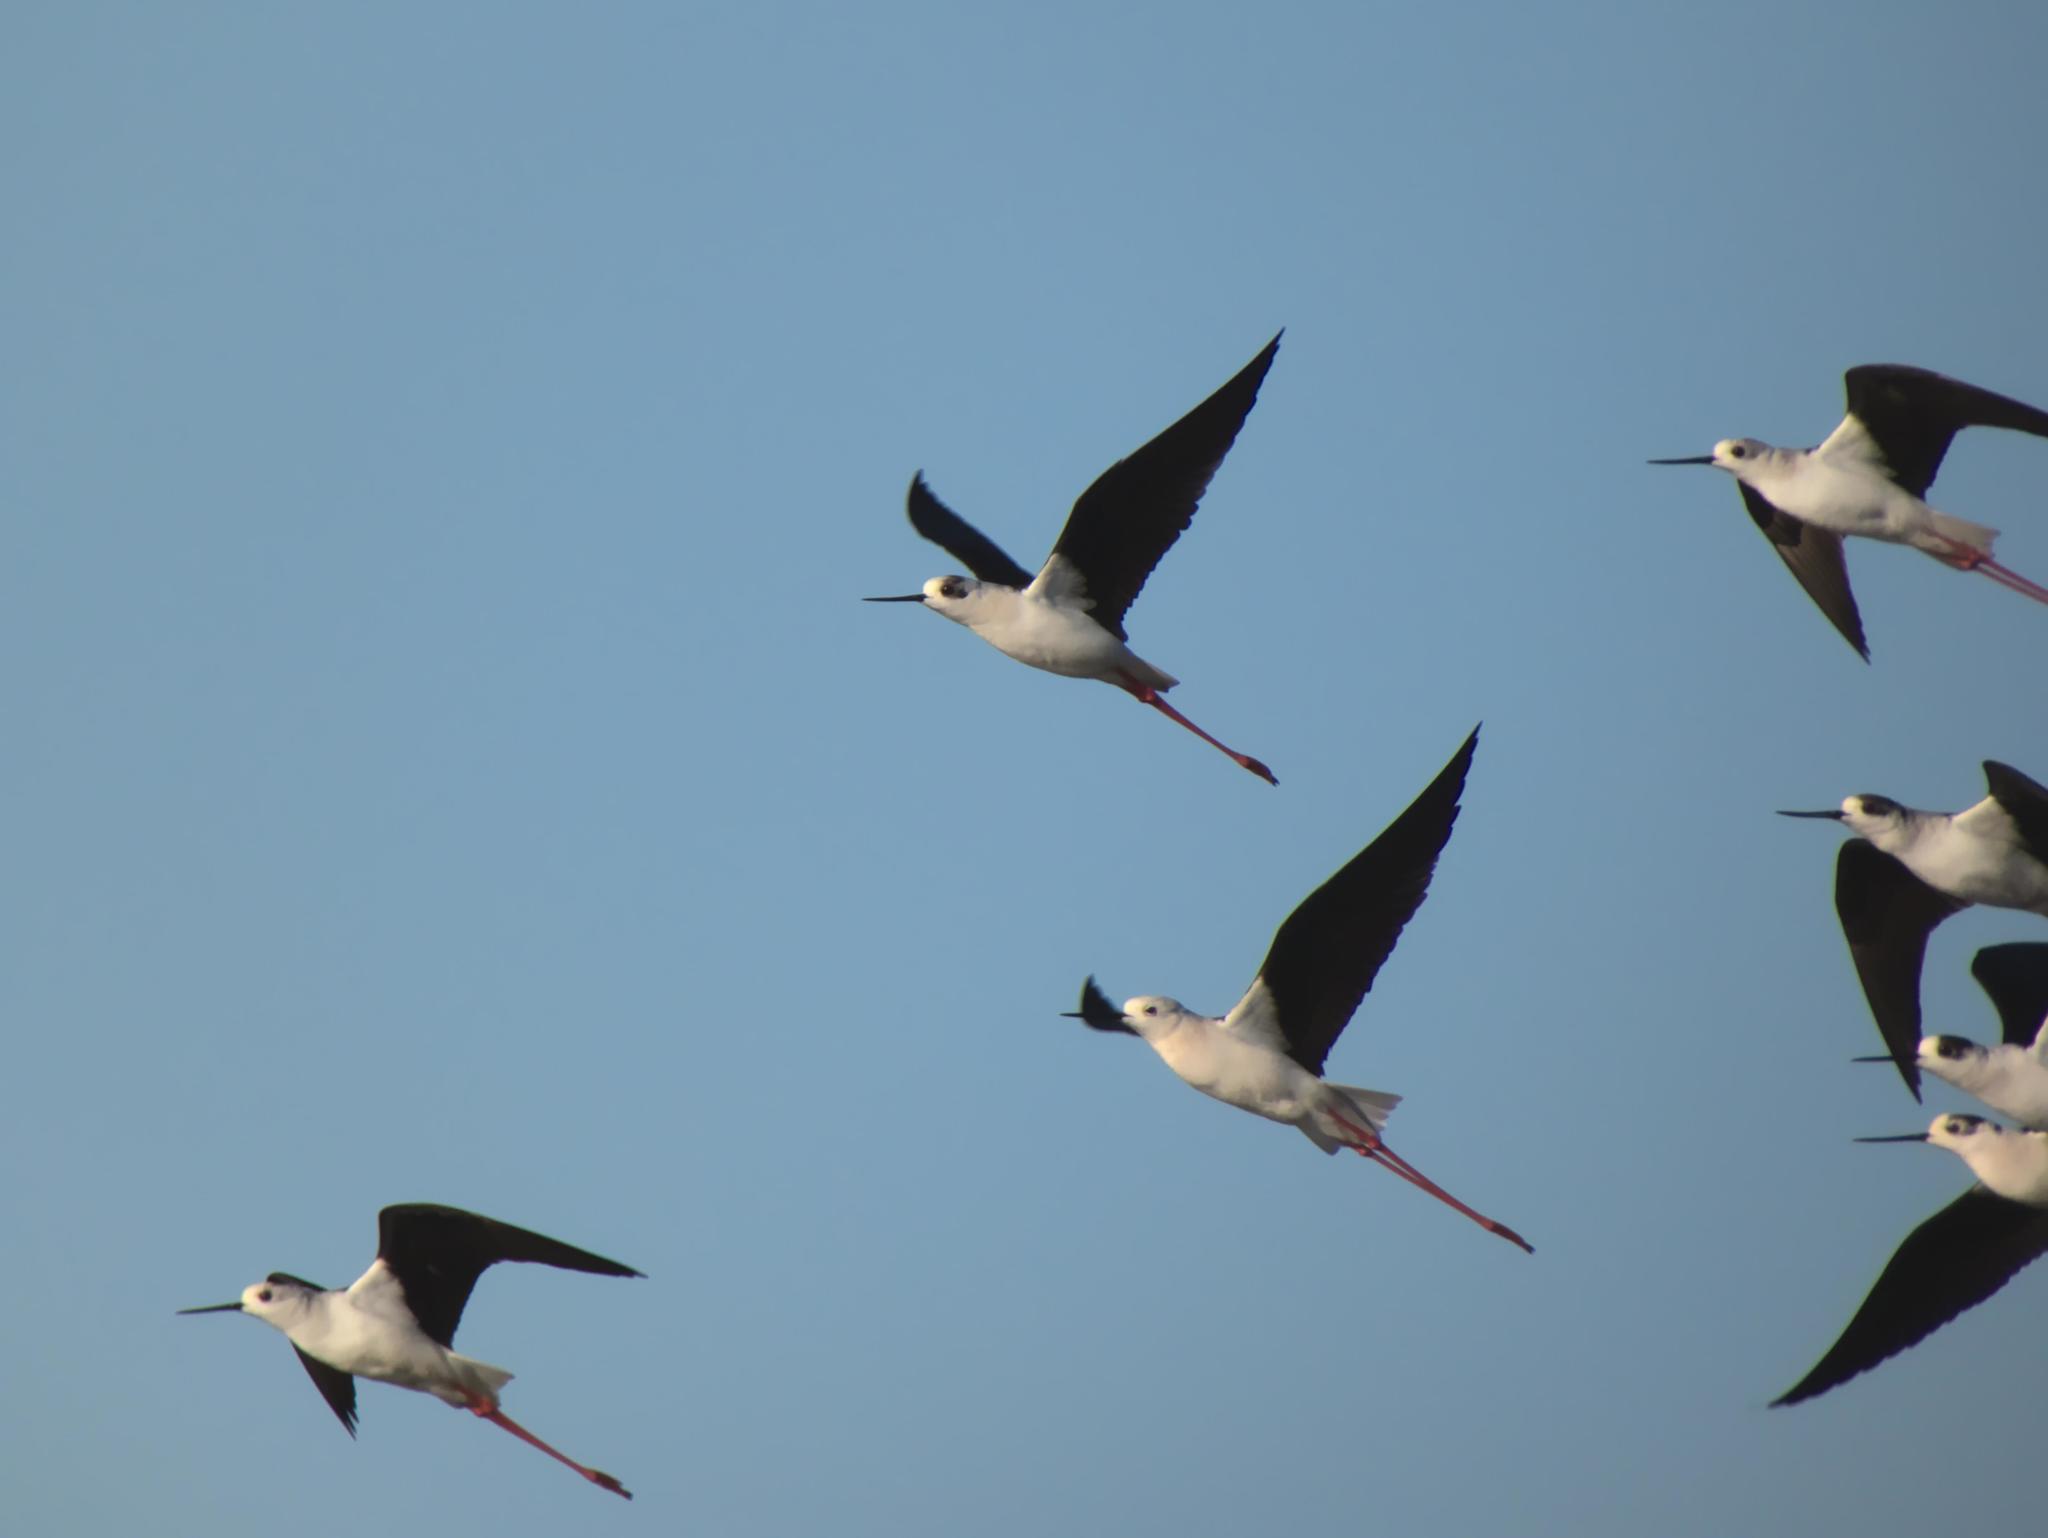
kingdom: Animalia
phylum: Chordata
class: Aves
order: Charadriiformes
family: Recurvirostridae
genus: Himantopus
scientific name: Himantopus himantopus
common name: Black-winged stilt
